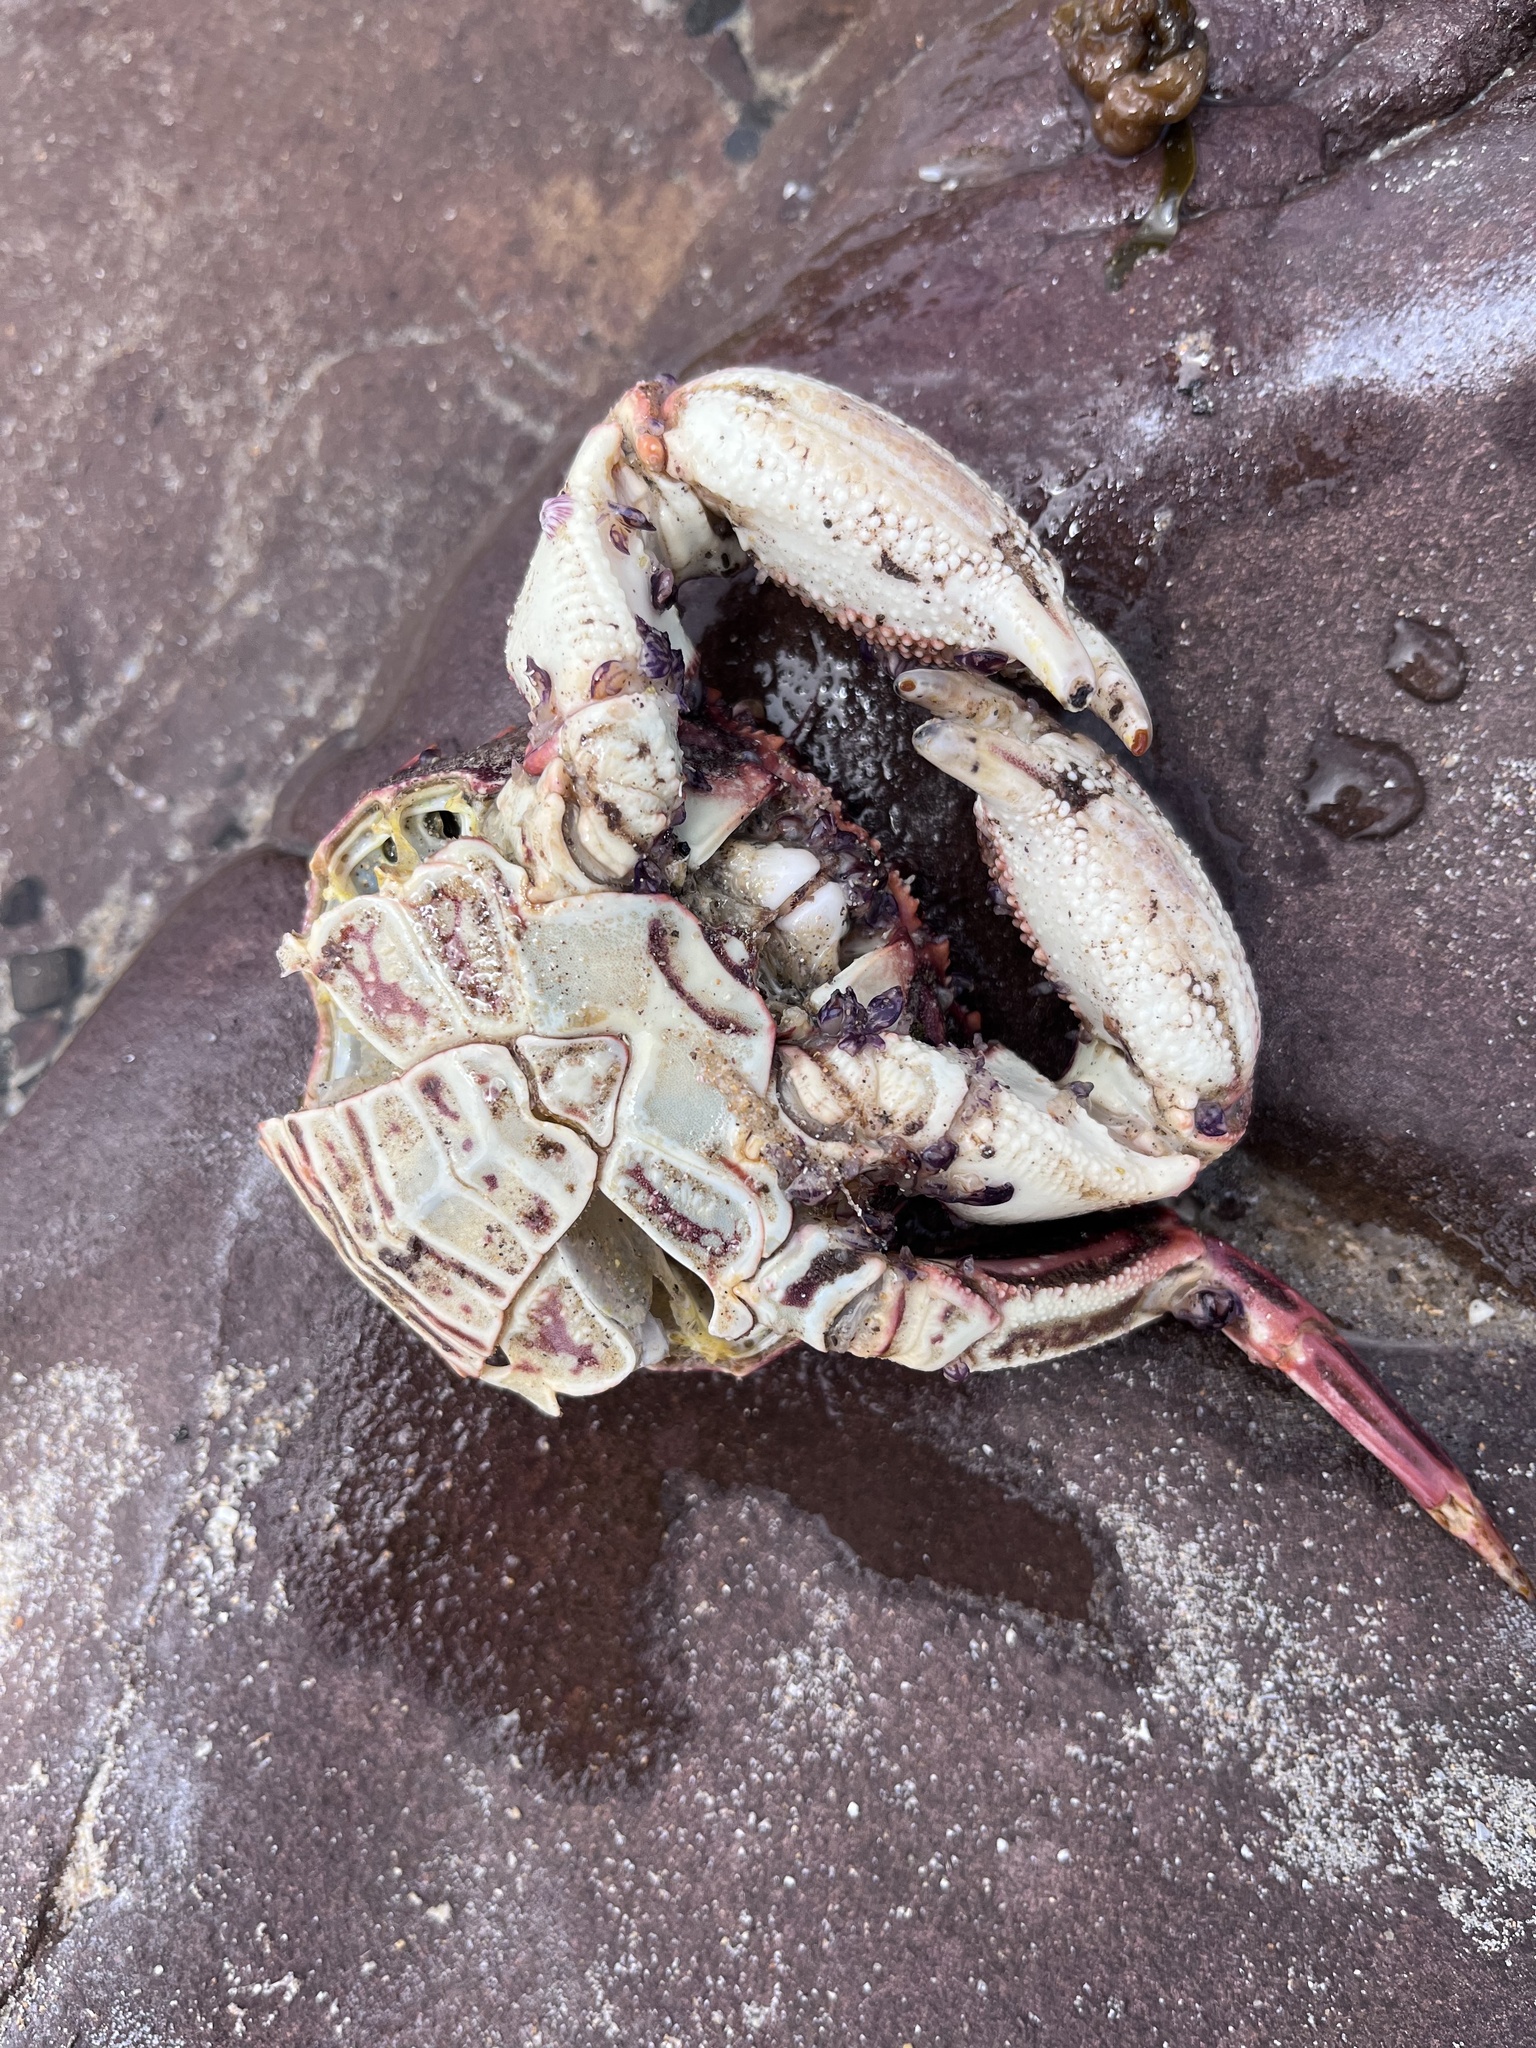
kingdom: Animalia
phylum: Arthropoda
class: Malacostraca
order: Decapoda
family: Plagusiidae
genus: Guinusia
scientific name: Guinusia chabrus
